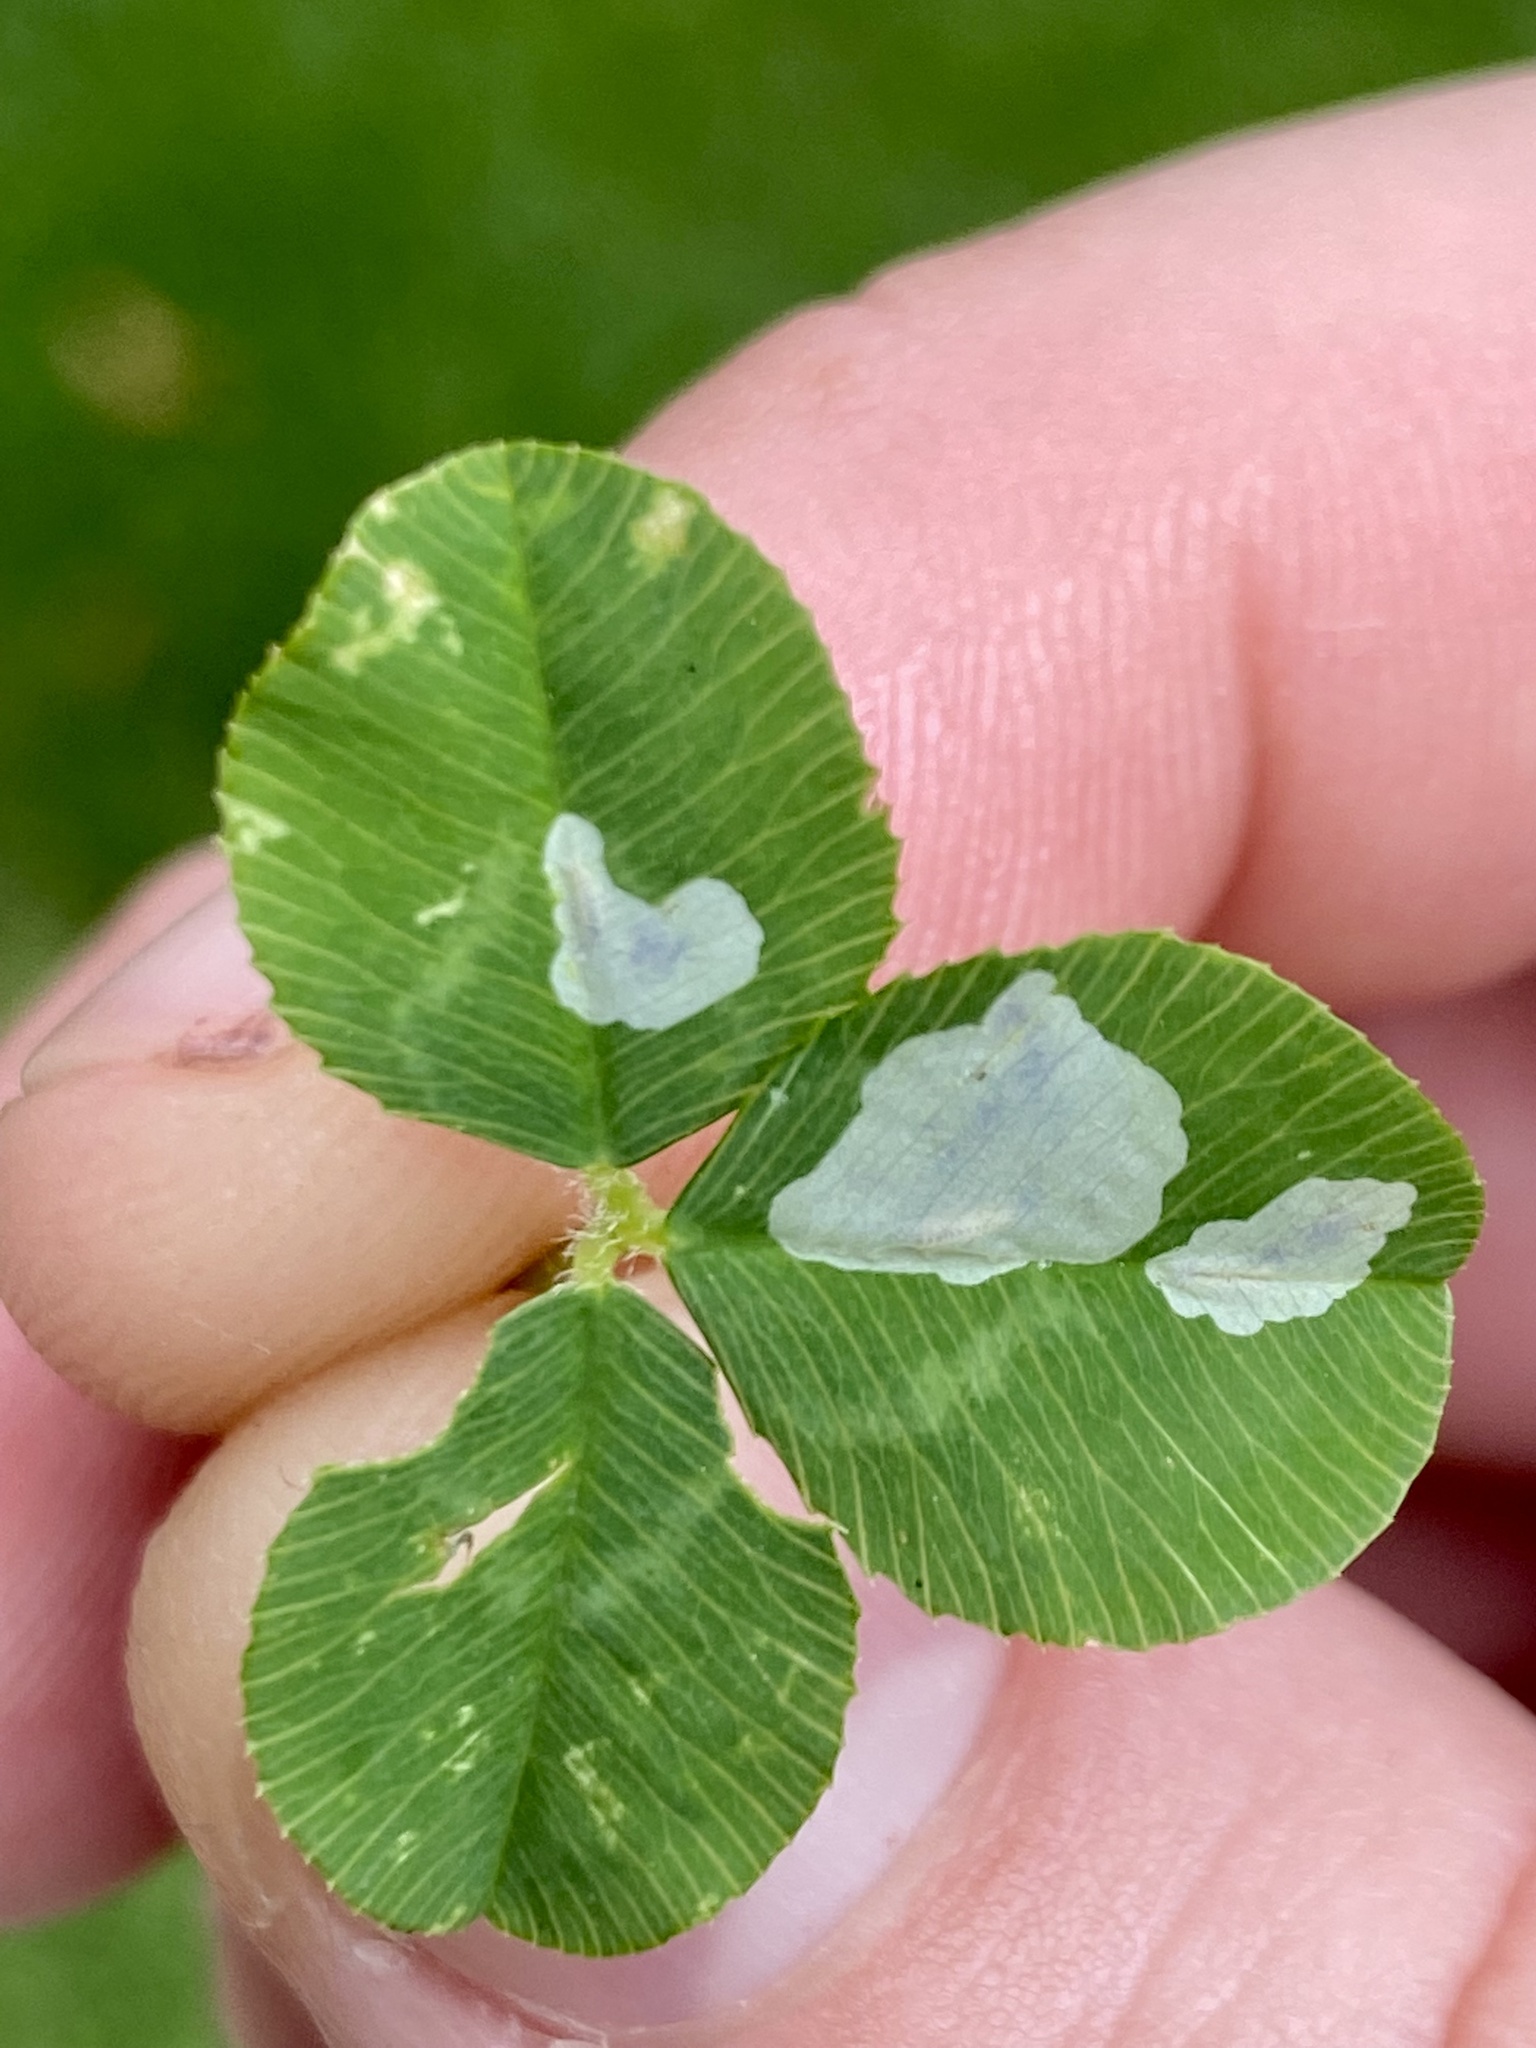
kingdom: Animalia
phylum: Arthropoda
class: Insecta
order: Lepidoptera
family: Gracillariidae
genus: Porphyrosela
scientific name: Porphyrosela minuta
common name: Leaf miner moth
